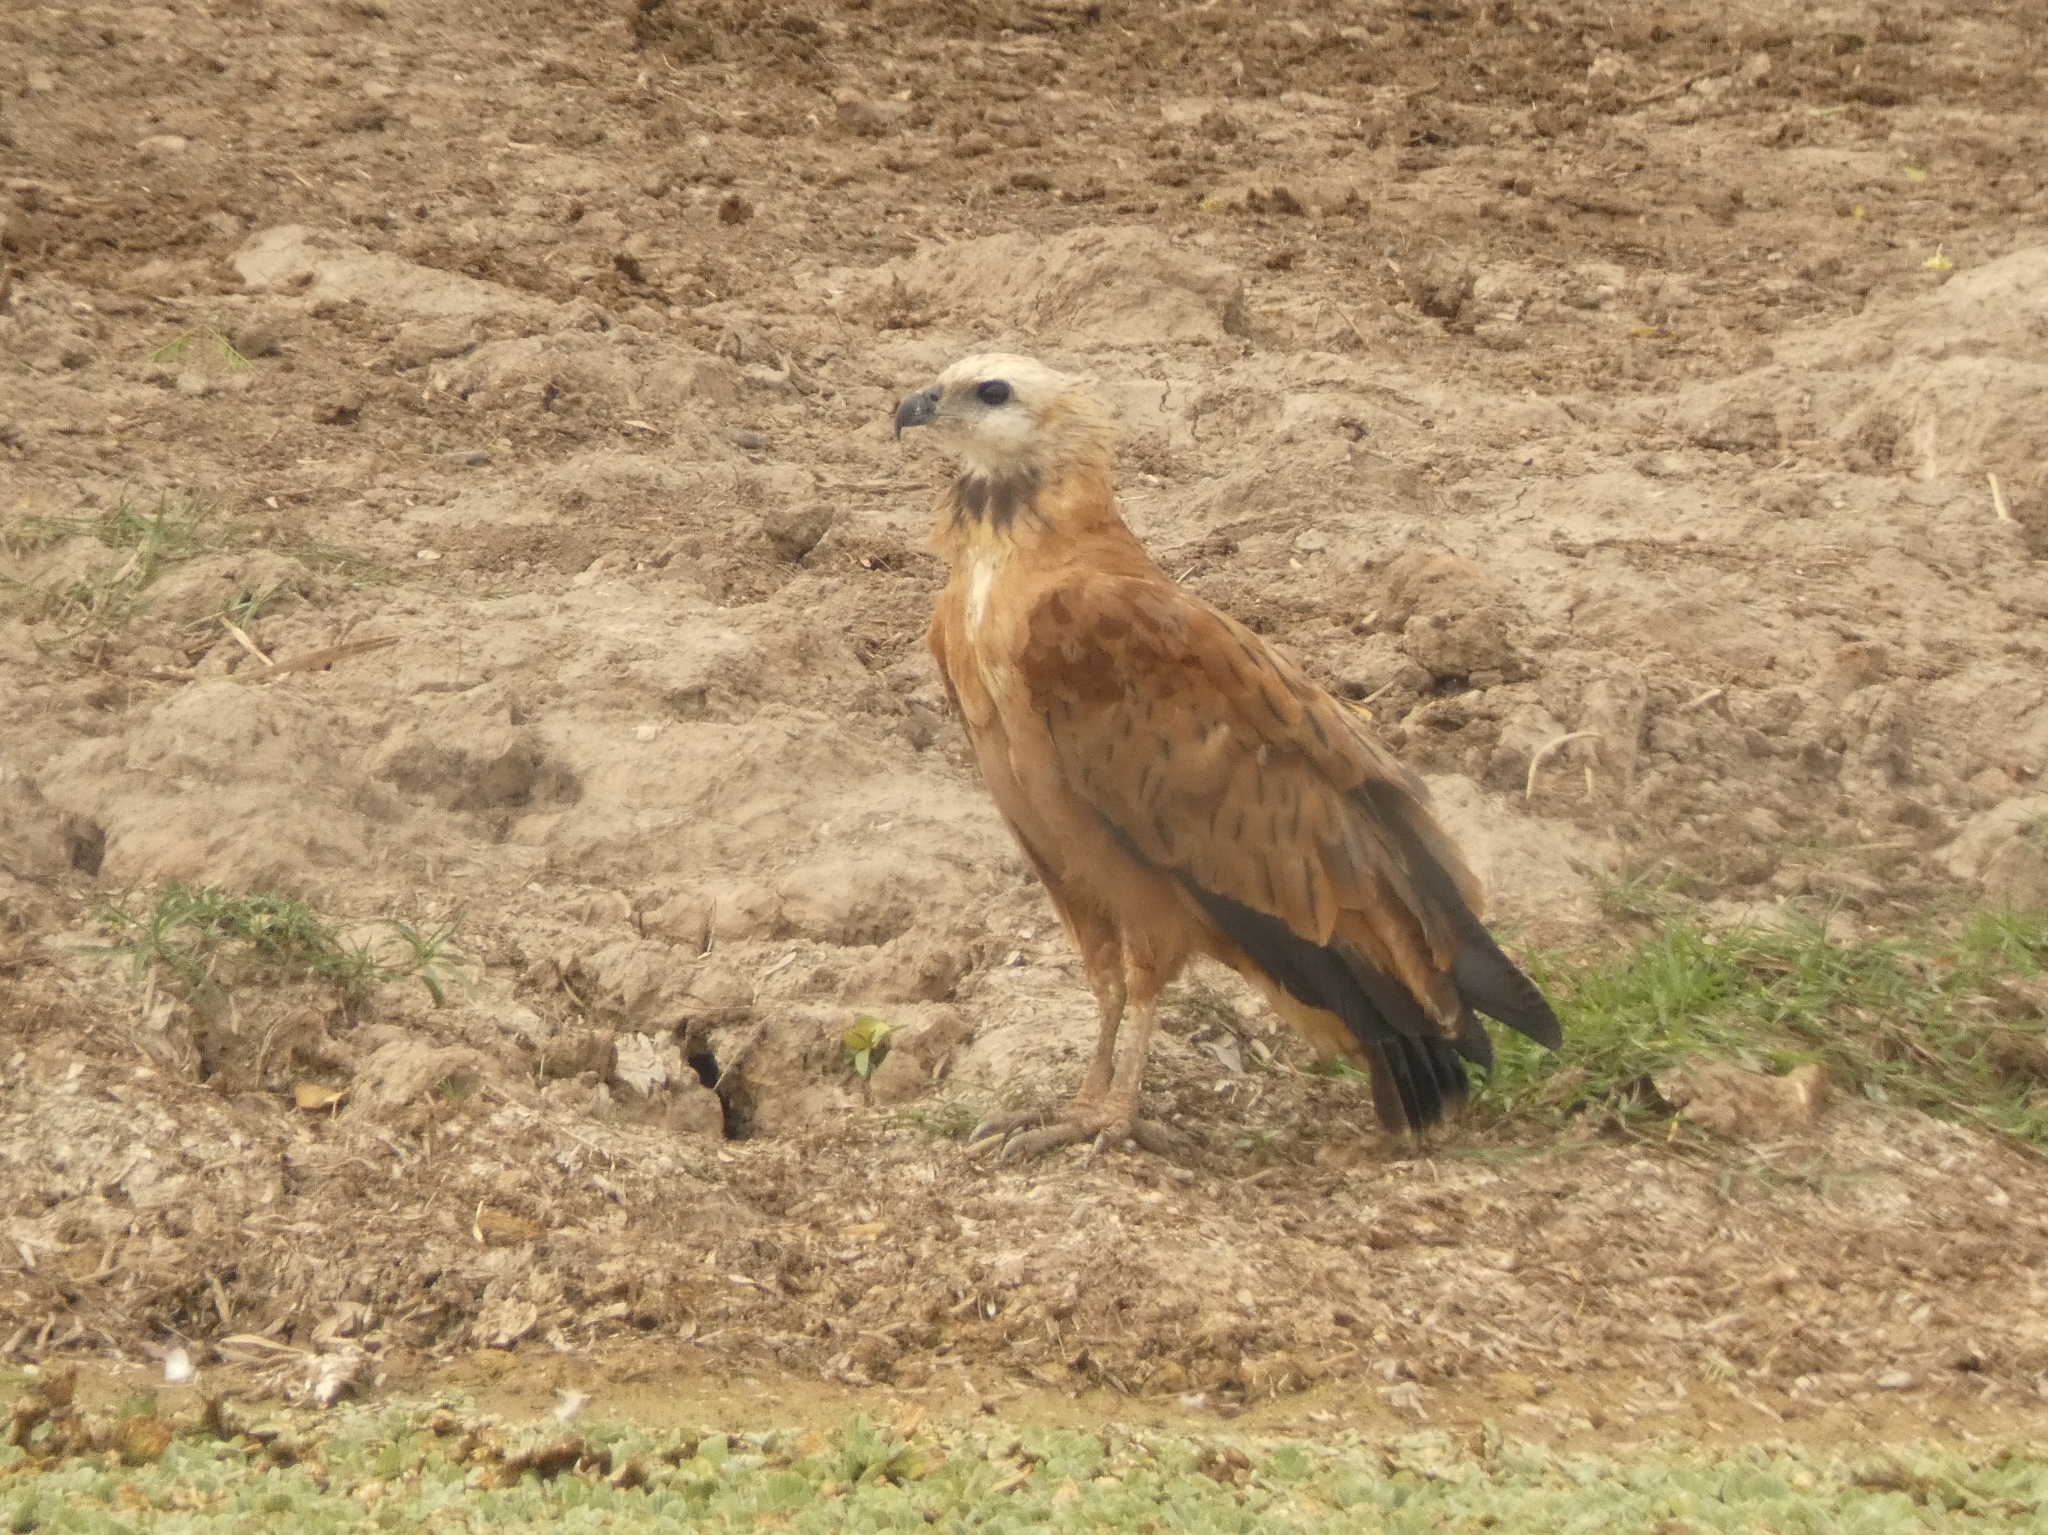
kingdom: Animalia
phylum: Chordata
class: Aves
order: Accipitriformes
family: Accipitridae
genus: Busarellus
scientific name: Busarellus nigricollis
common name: Black-collared hawk
